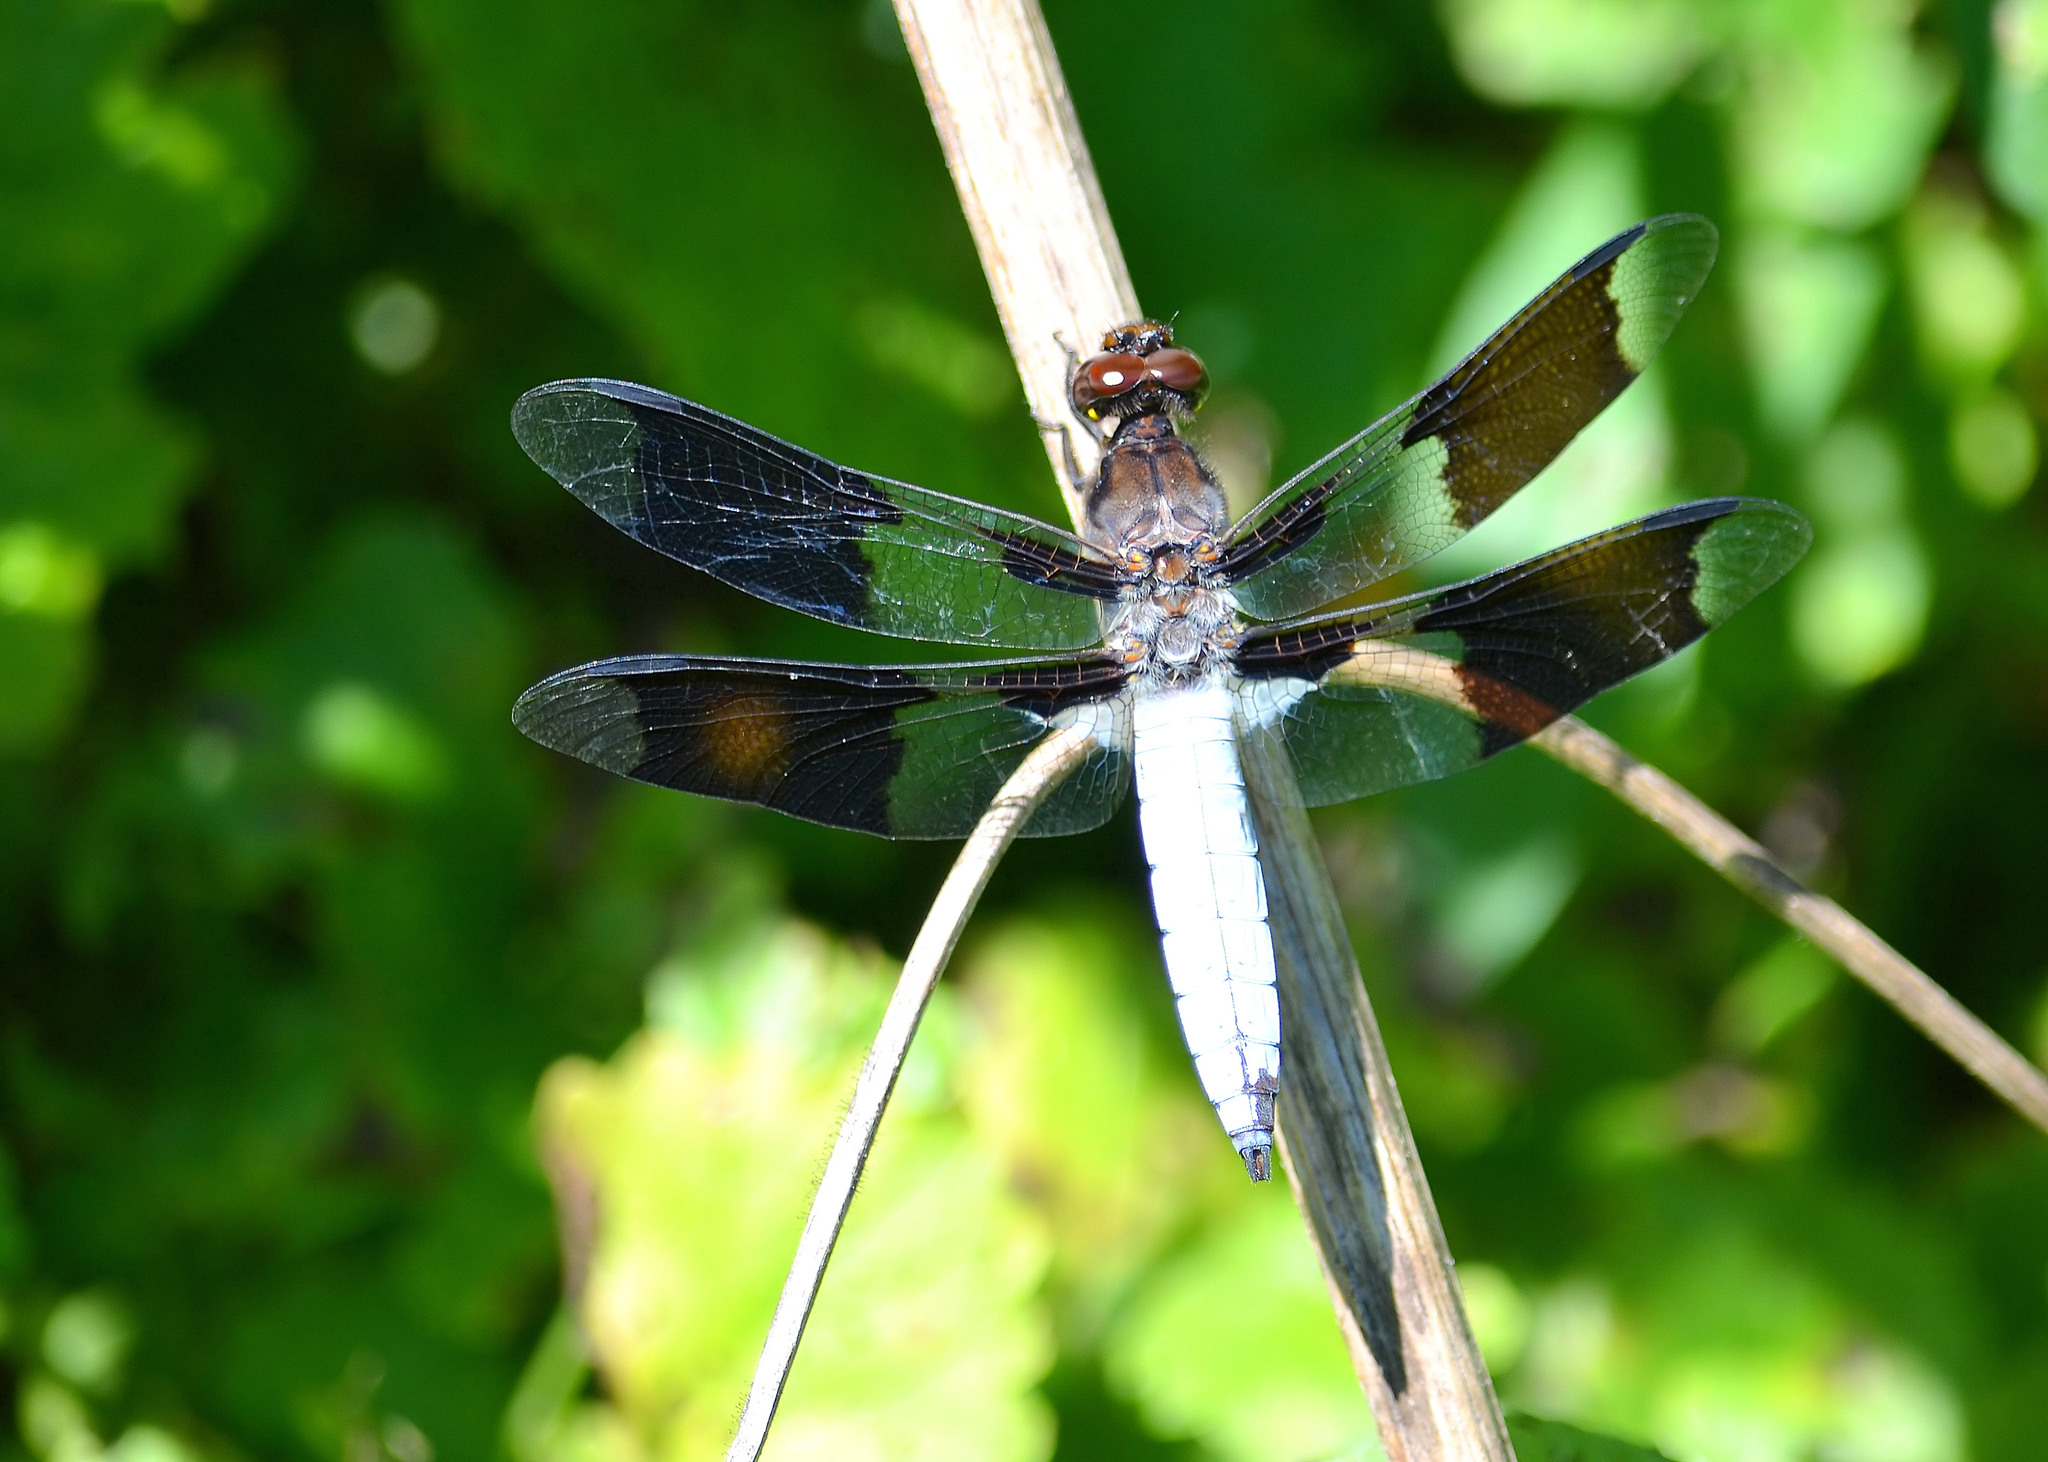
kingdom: Animalia
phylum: Arthropoda
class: Insecta
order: Odonata
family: Libellulidae
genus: Plathemis
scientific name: Plathemis lydia
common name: Common whitetail
